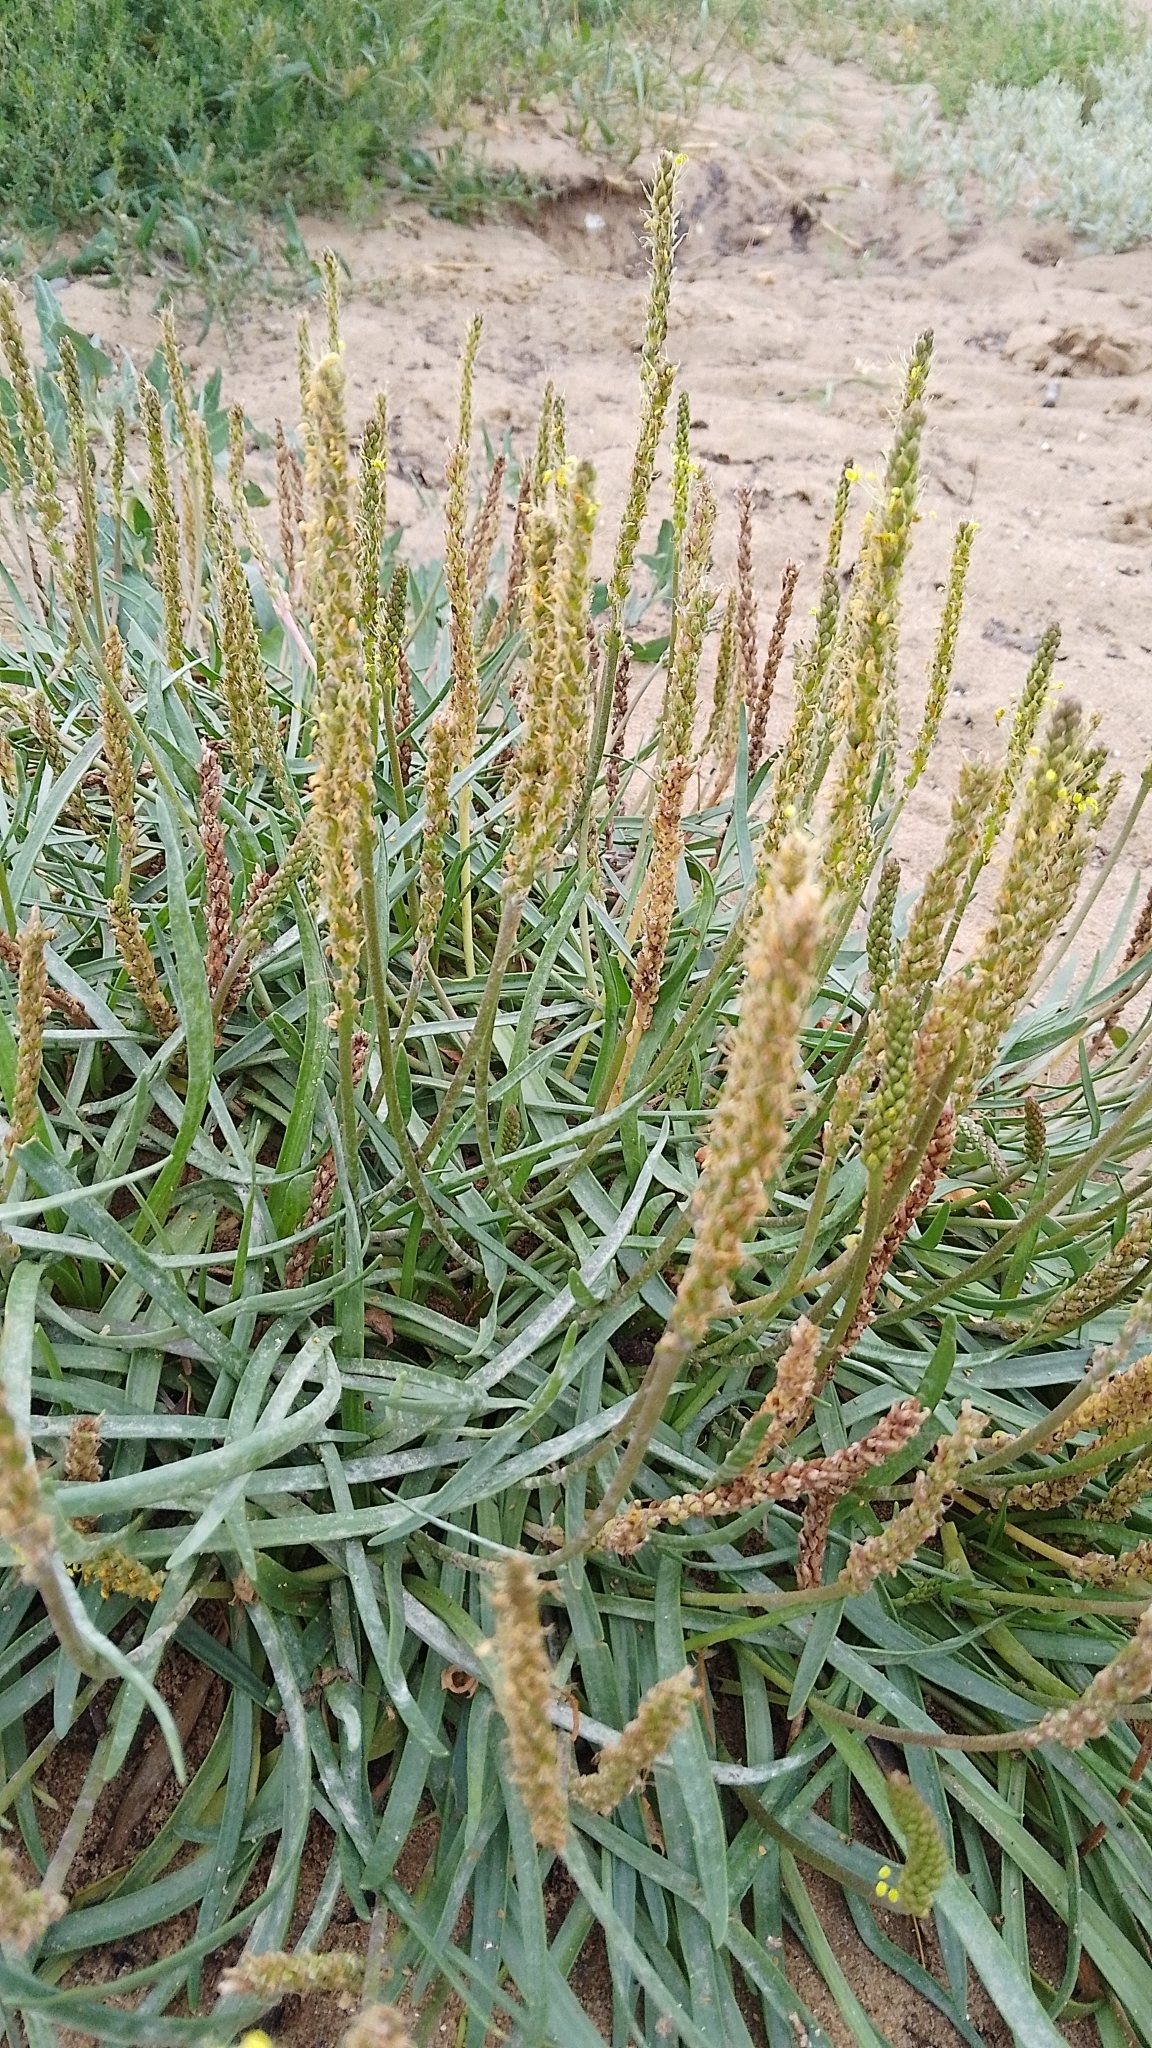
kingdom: Plantae
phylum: Tracheophyta
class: Magnoliopsida
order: Lamiales
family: Plantaginaceae
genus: Plantago
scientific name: Plantago maritima
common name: Sea plantain
